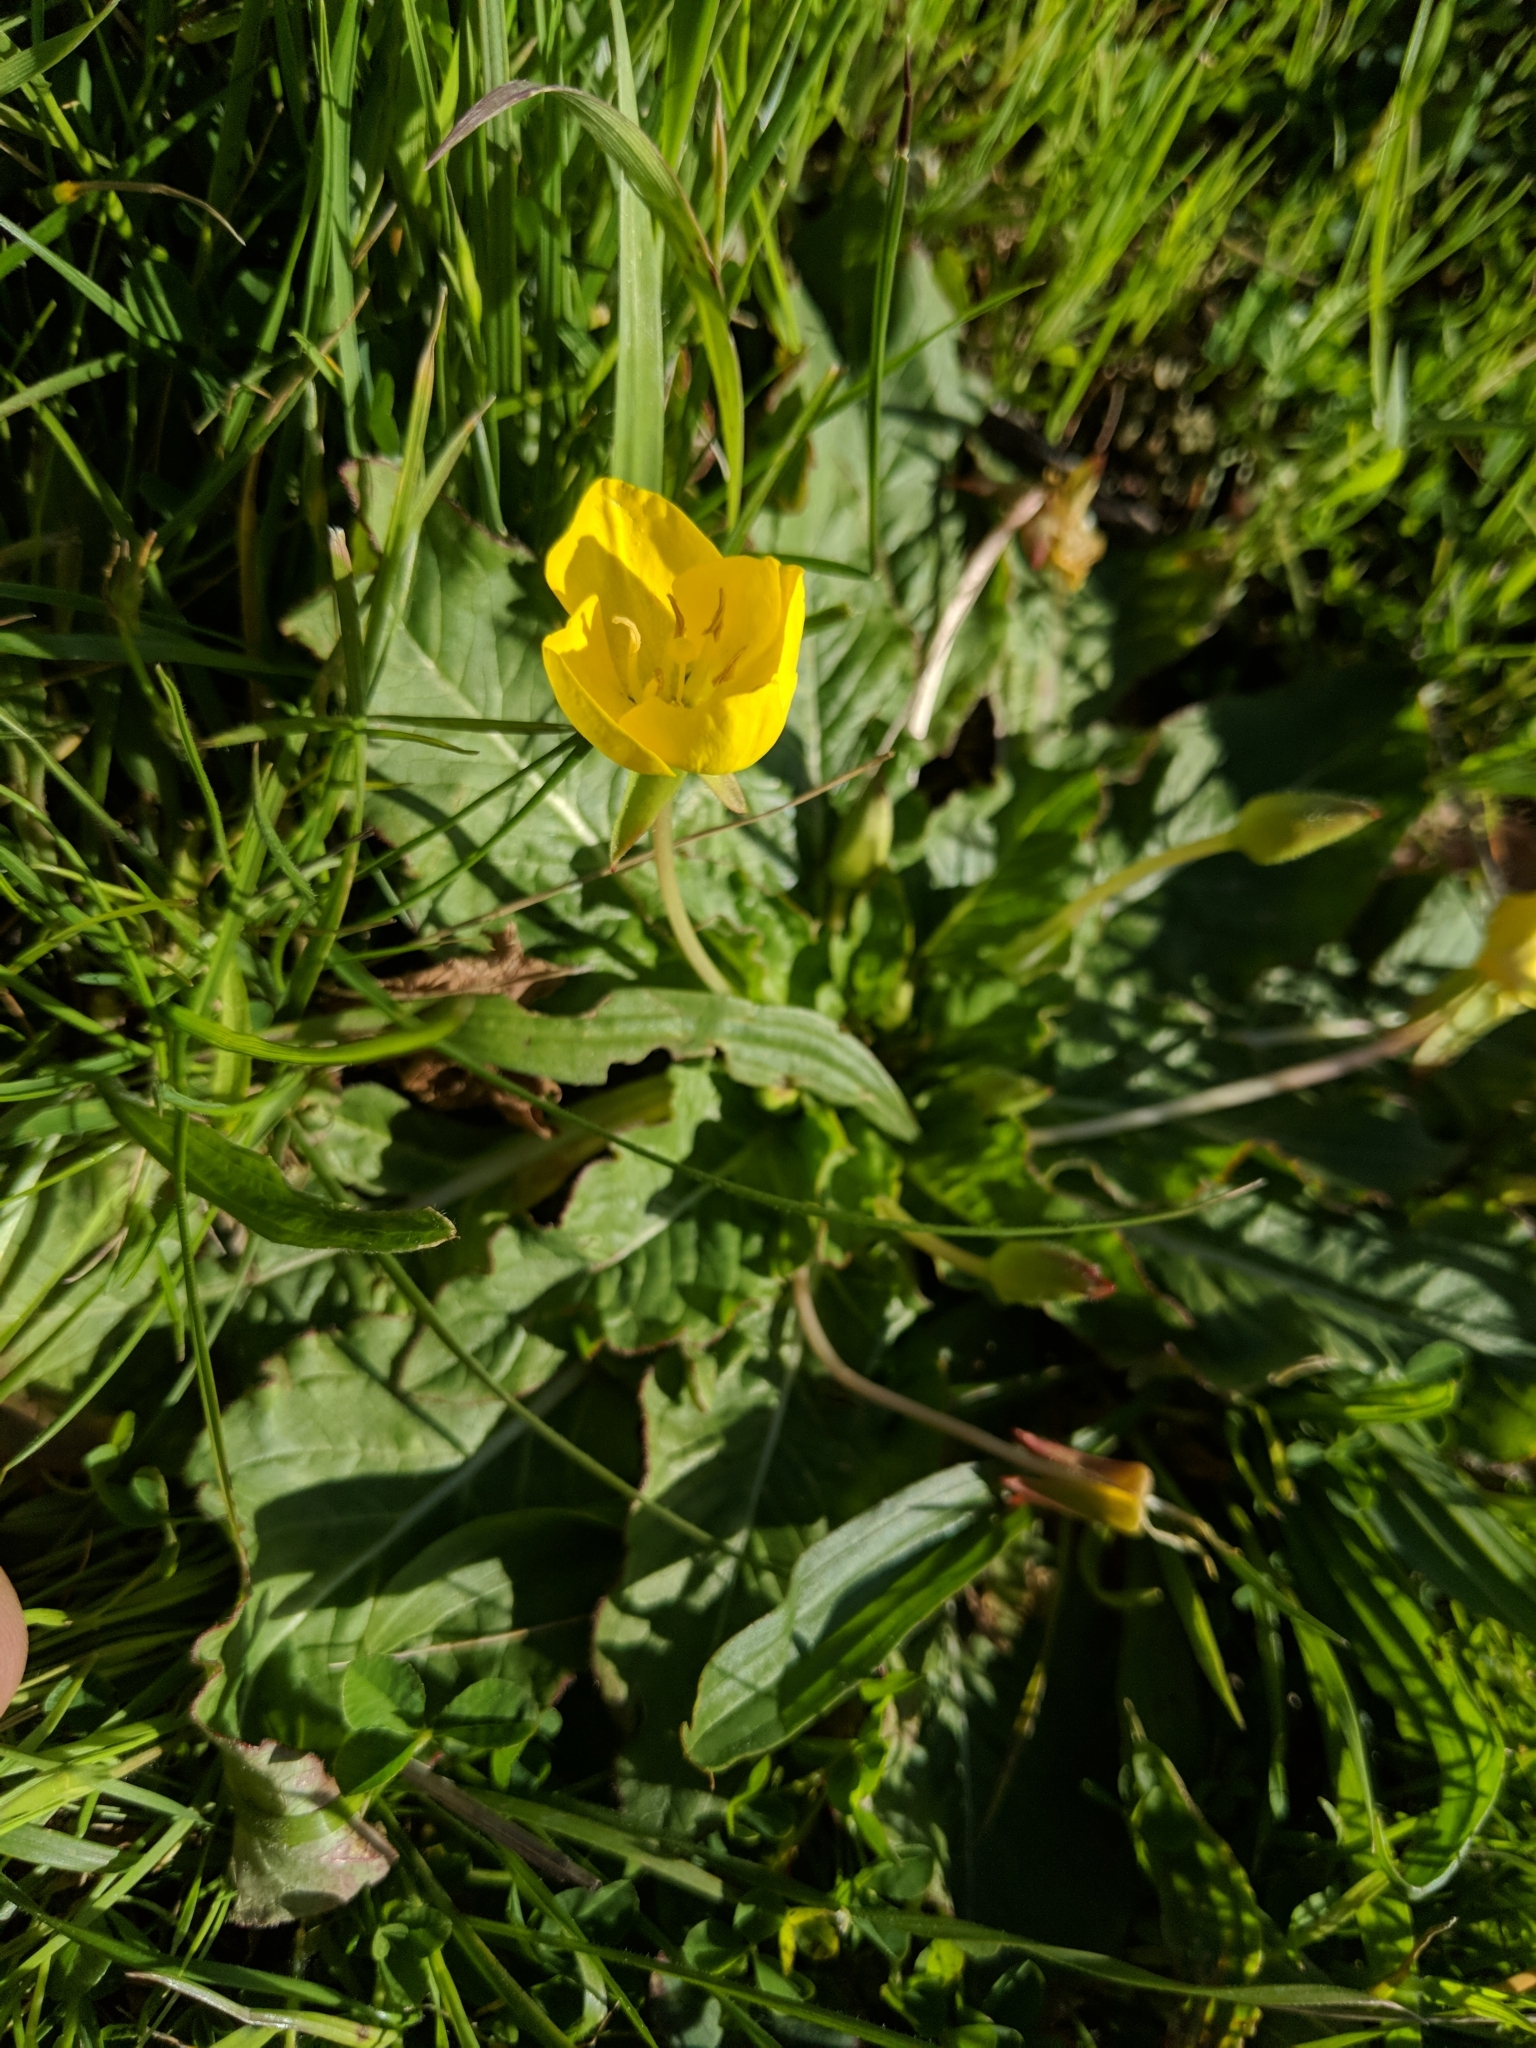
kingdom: Plantae
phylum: Tracheophyta
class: Magnoliopsida
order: Myrtales
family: Onagraceae
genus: Taraxia
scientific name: Taraxia ovata
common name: Goldeneggs
